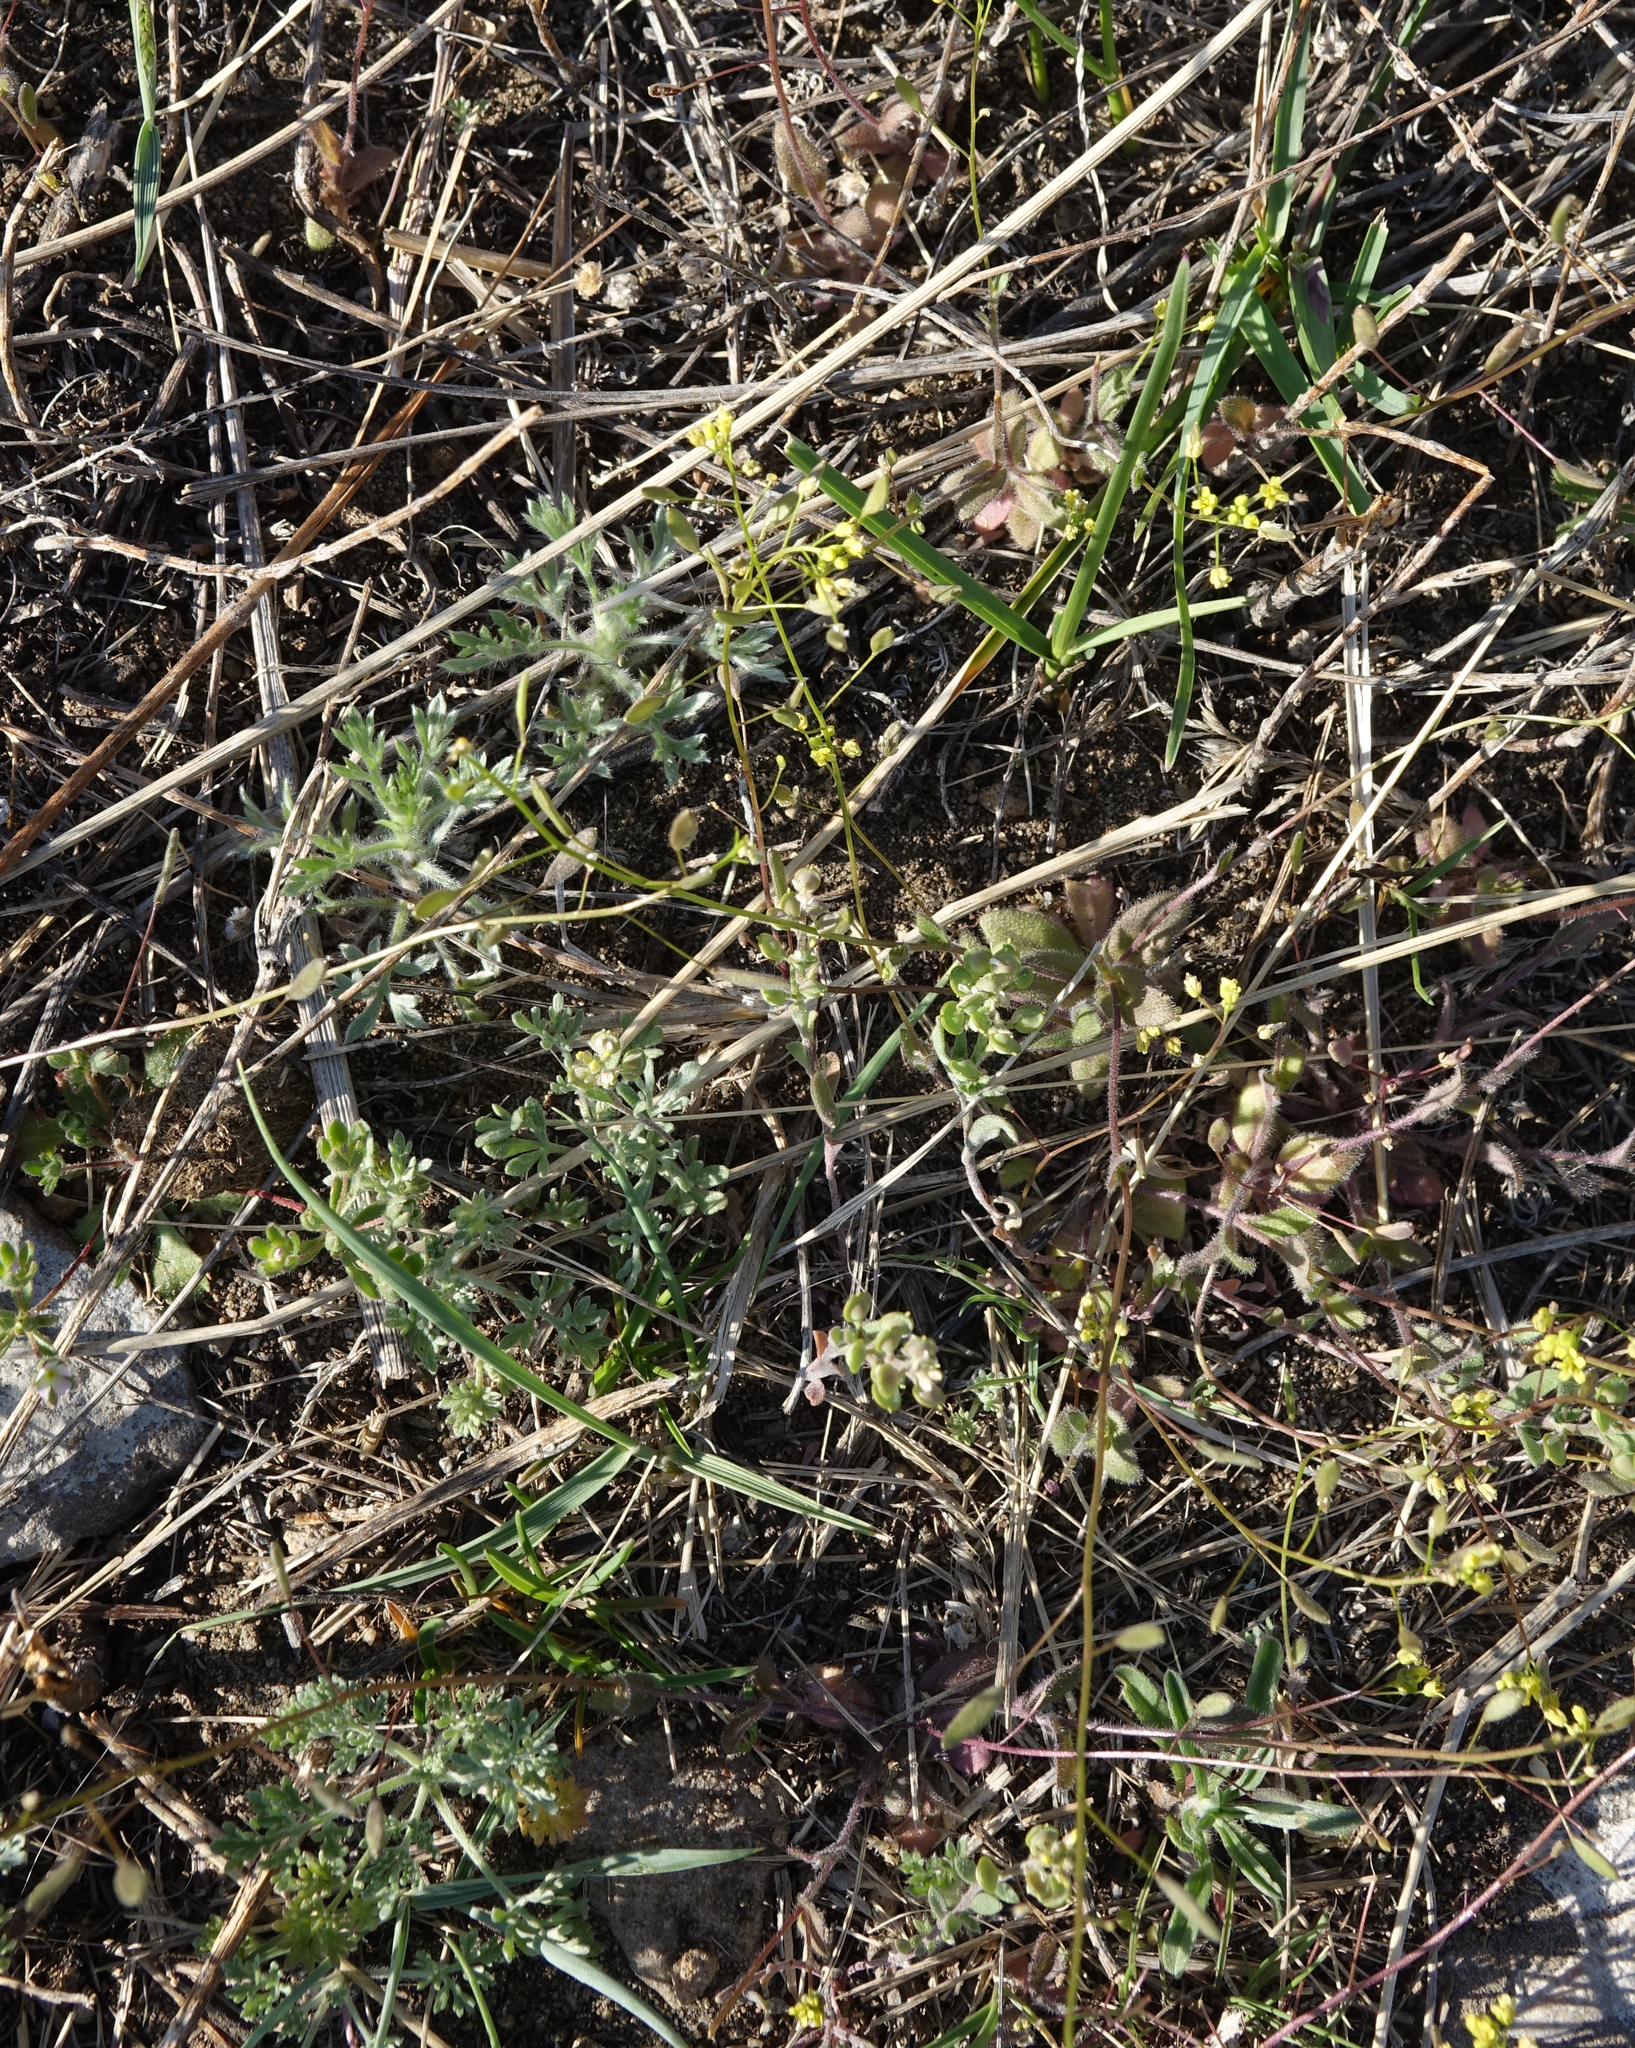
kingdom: Plantae
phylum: Tracheophyta
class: Magnoliopsida
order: Brassicales
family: Brassicaceae
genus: Draba
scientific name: Draba nemorosa
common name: Wood whitlow-grass
